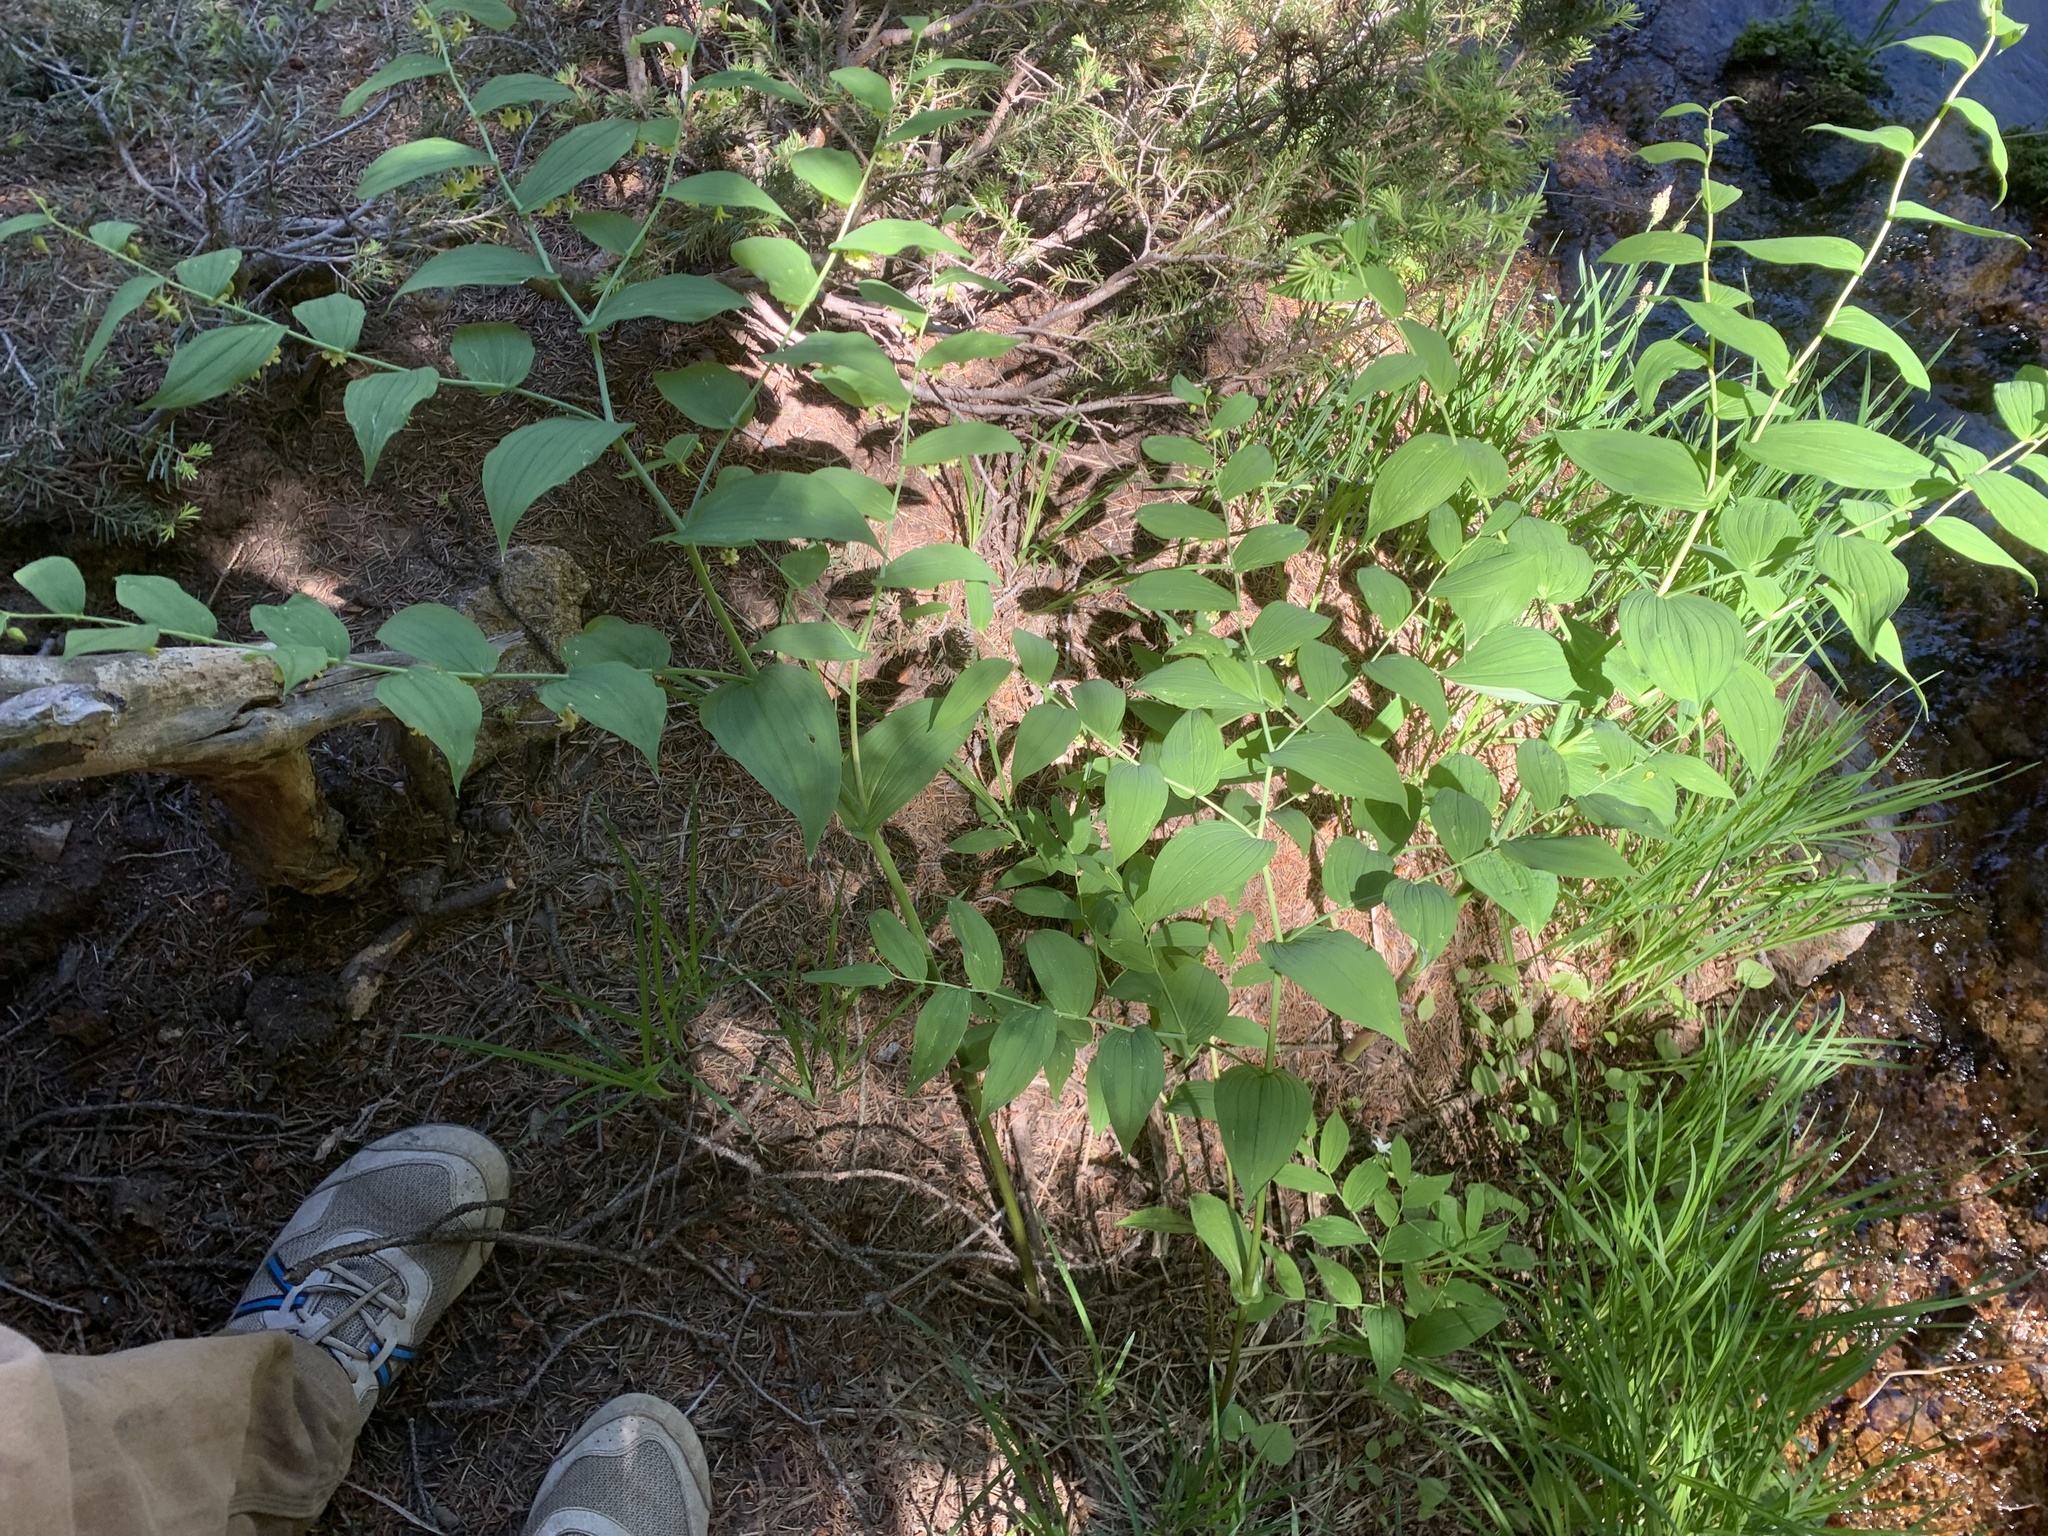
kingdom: Plantae
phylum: Tracheophyta
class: Liliopsida
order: Liliales
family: Liliaceae
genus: Streptopus
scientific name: Streptopus amplexifolius
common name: Clasp twisted stalk
